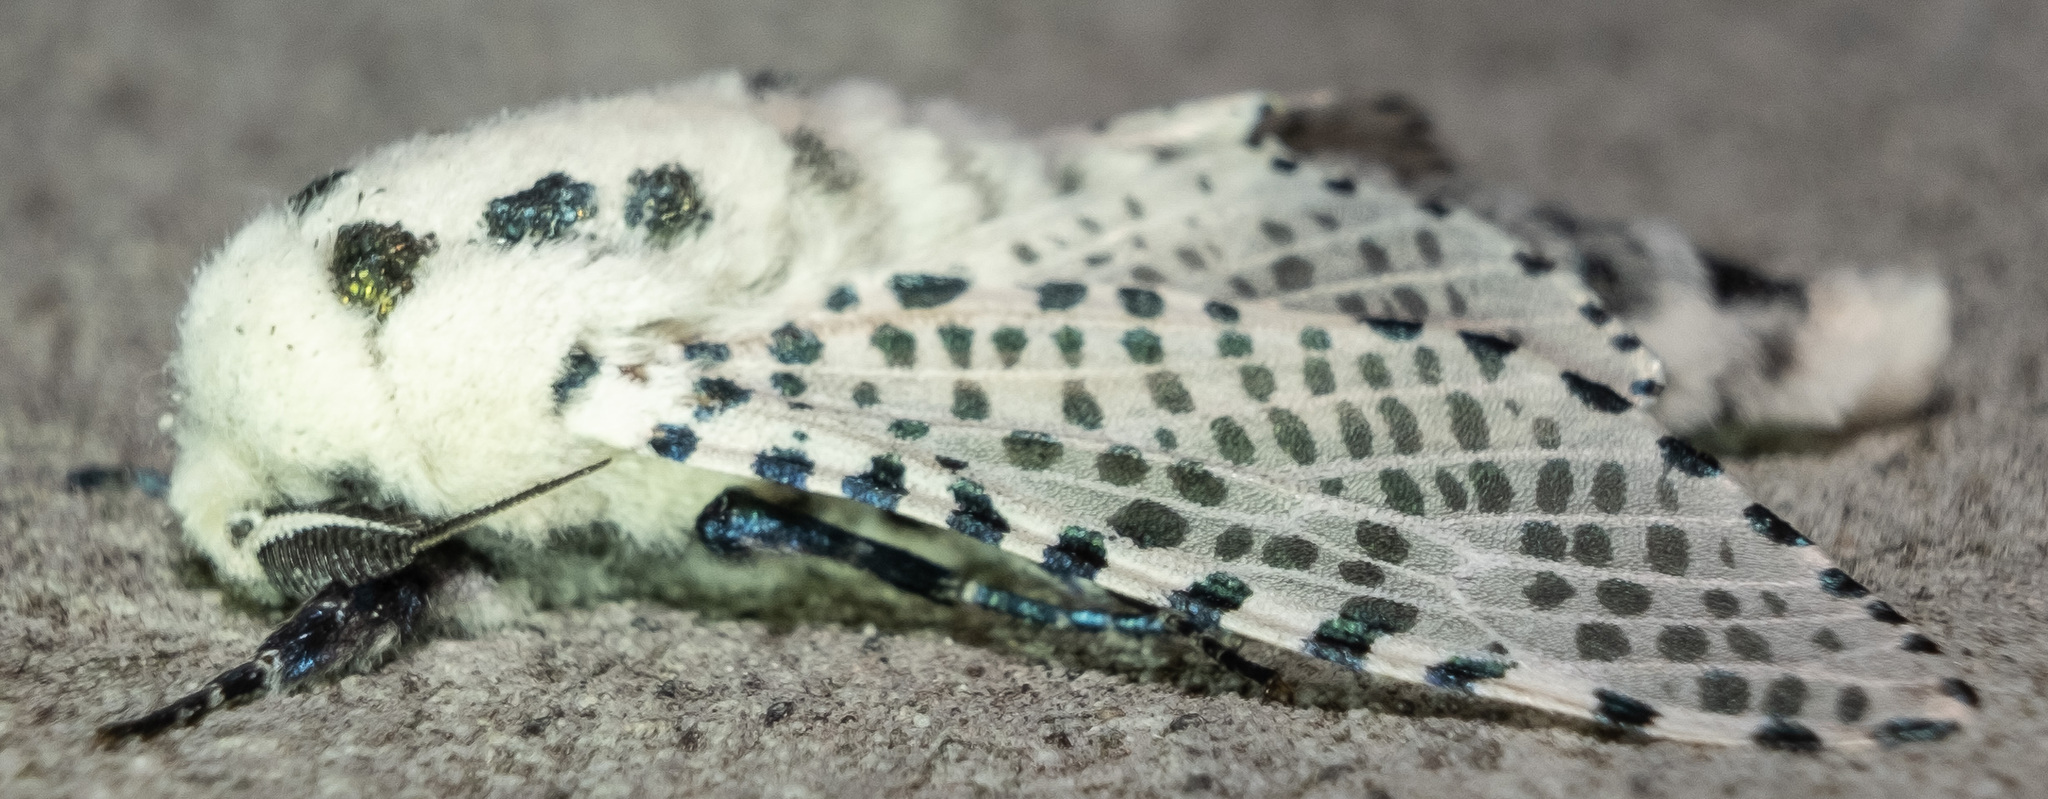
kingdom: Animalia
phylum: Arthropoda
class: Insecta
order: Lepidoptera
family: Cossidae
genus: Zeuzera
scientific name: Zeuzera pyrina
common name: Leopard moth
